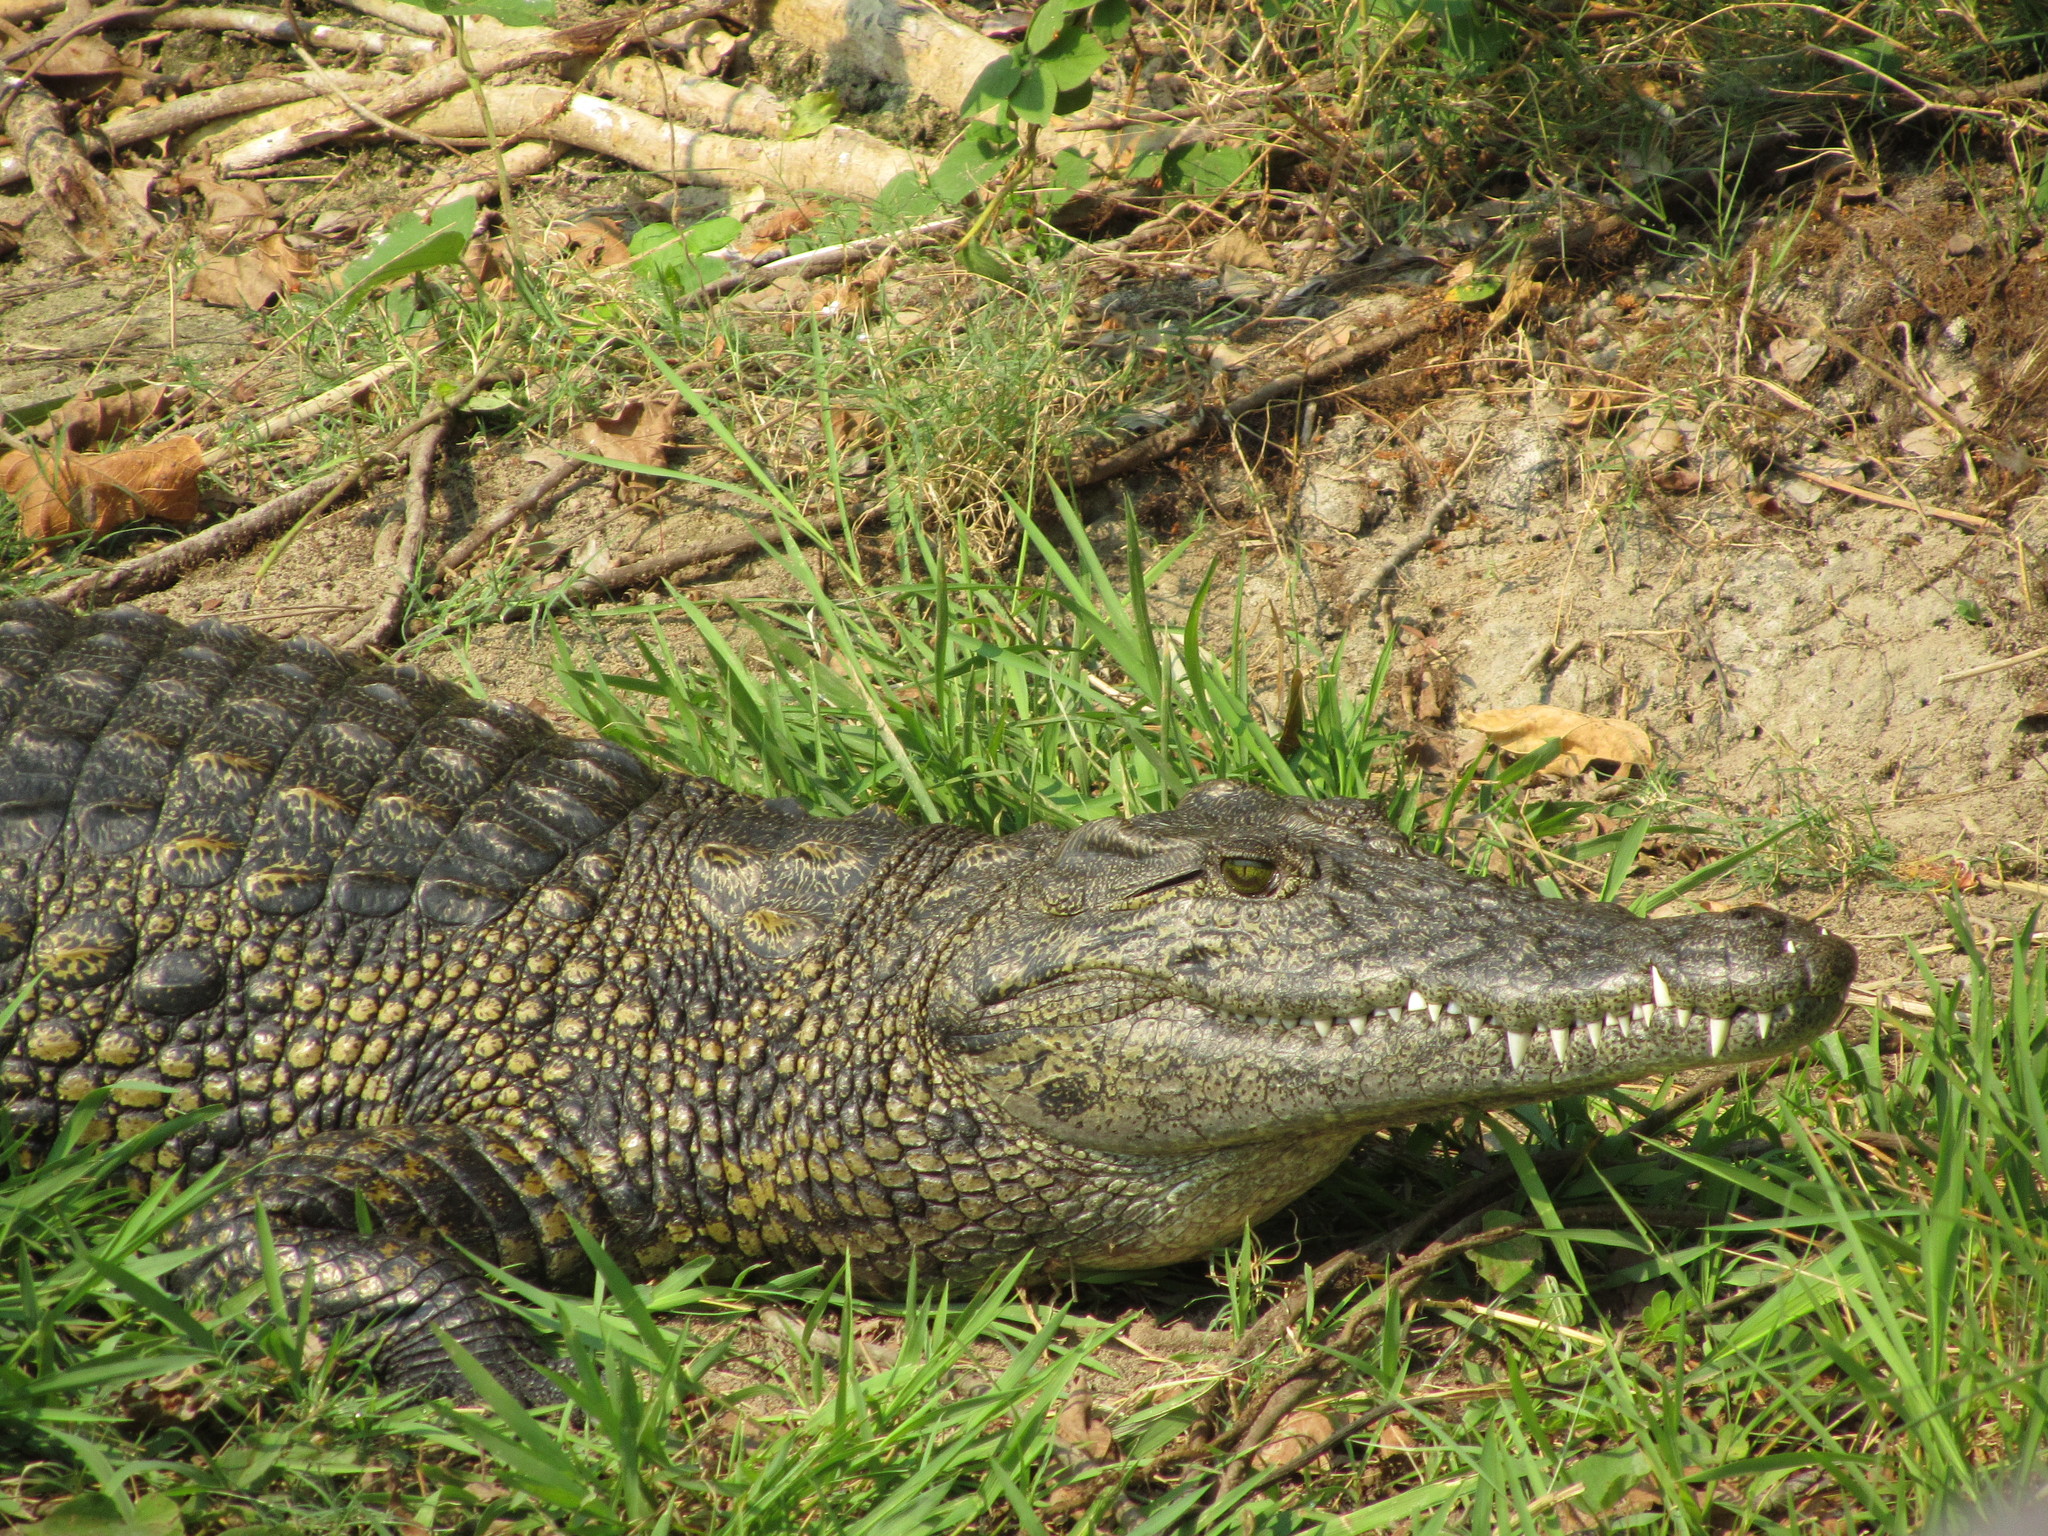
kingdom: Animalia
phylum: Chordata
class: Crocodylia
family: Crocodylidae
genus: Crocodylus
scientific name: Crocodylus niloticus
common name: Nile crocodile
